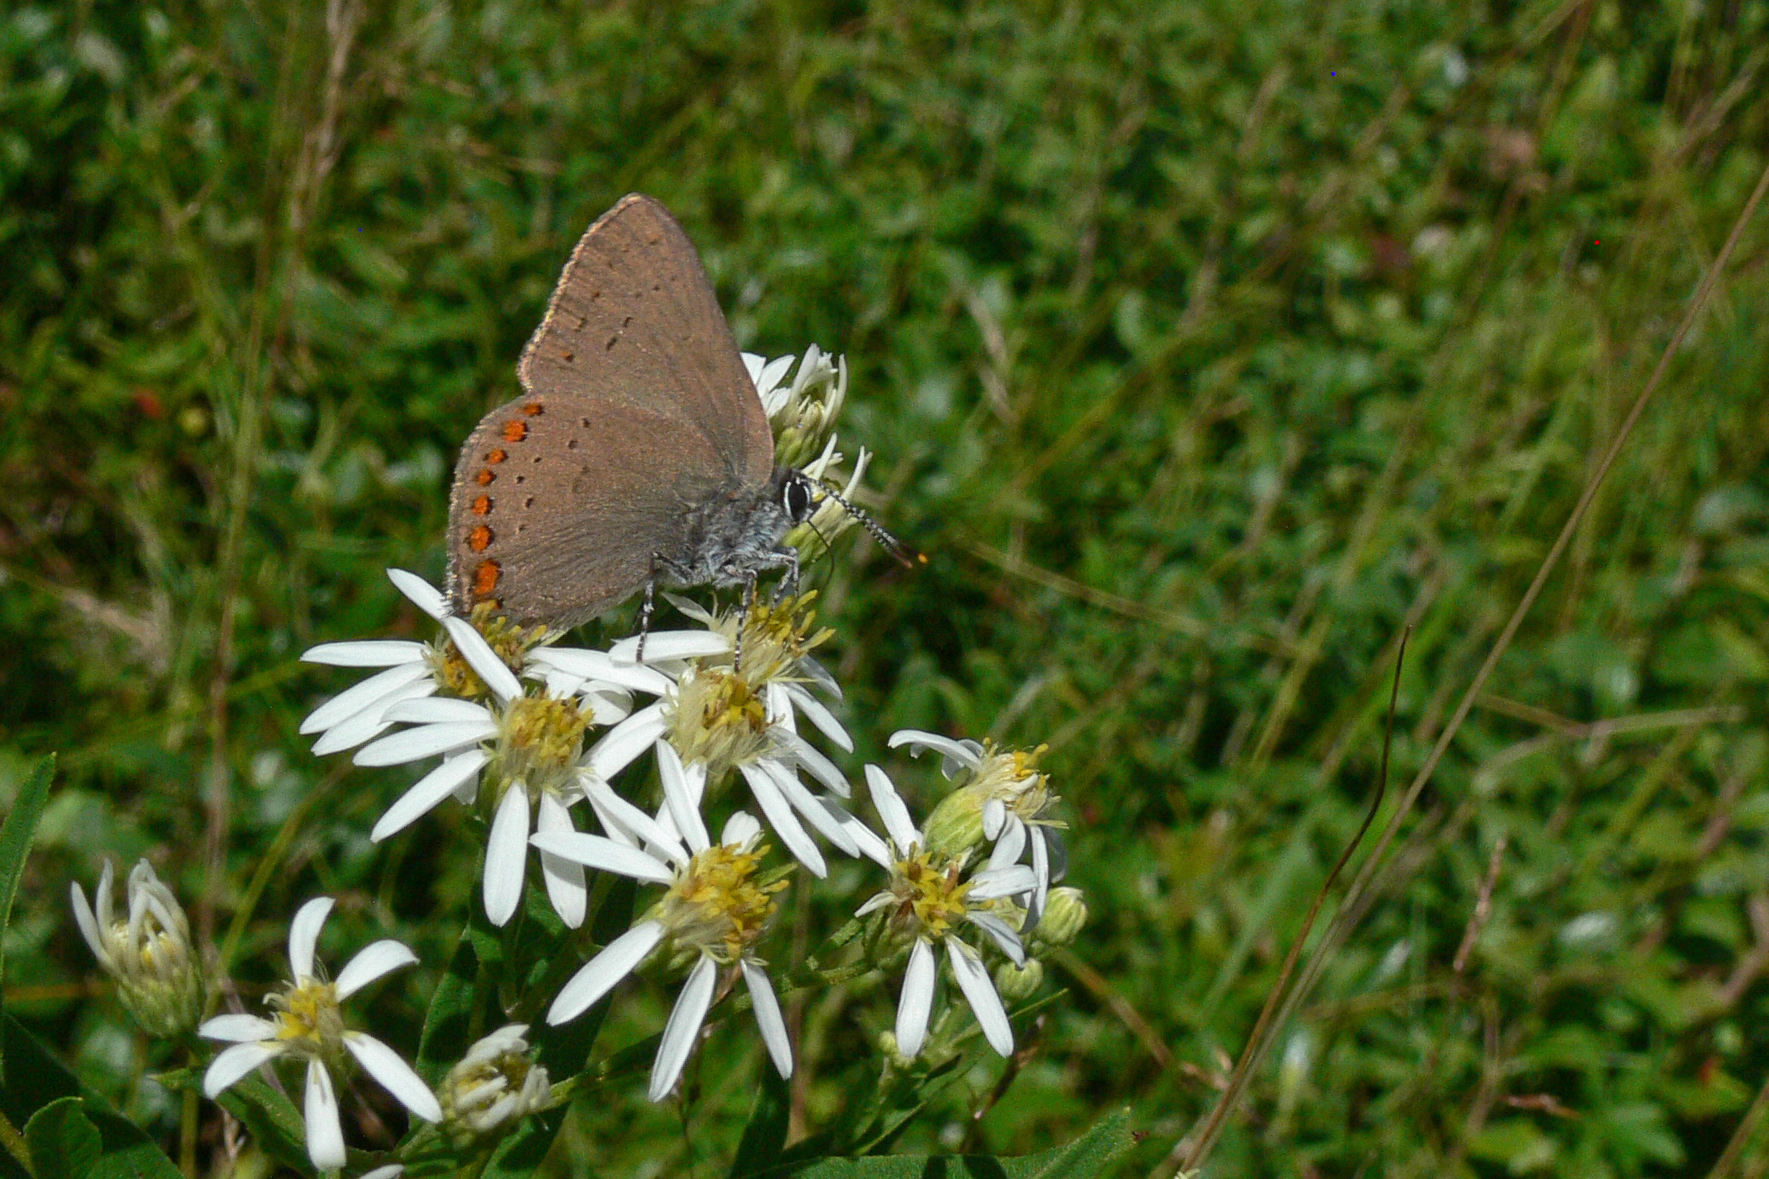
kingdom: Animalia
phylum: Arthropoda
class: Insecta
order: Lepidoptera
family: Lycaenidae
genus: Harkenclenus
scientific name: Harkenclenus titus
